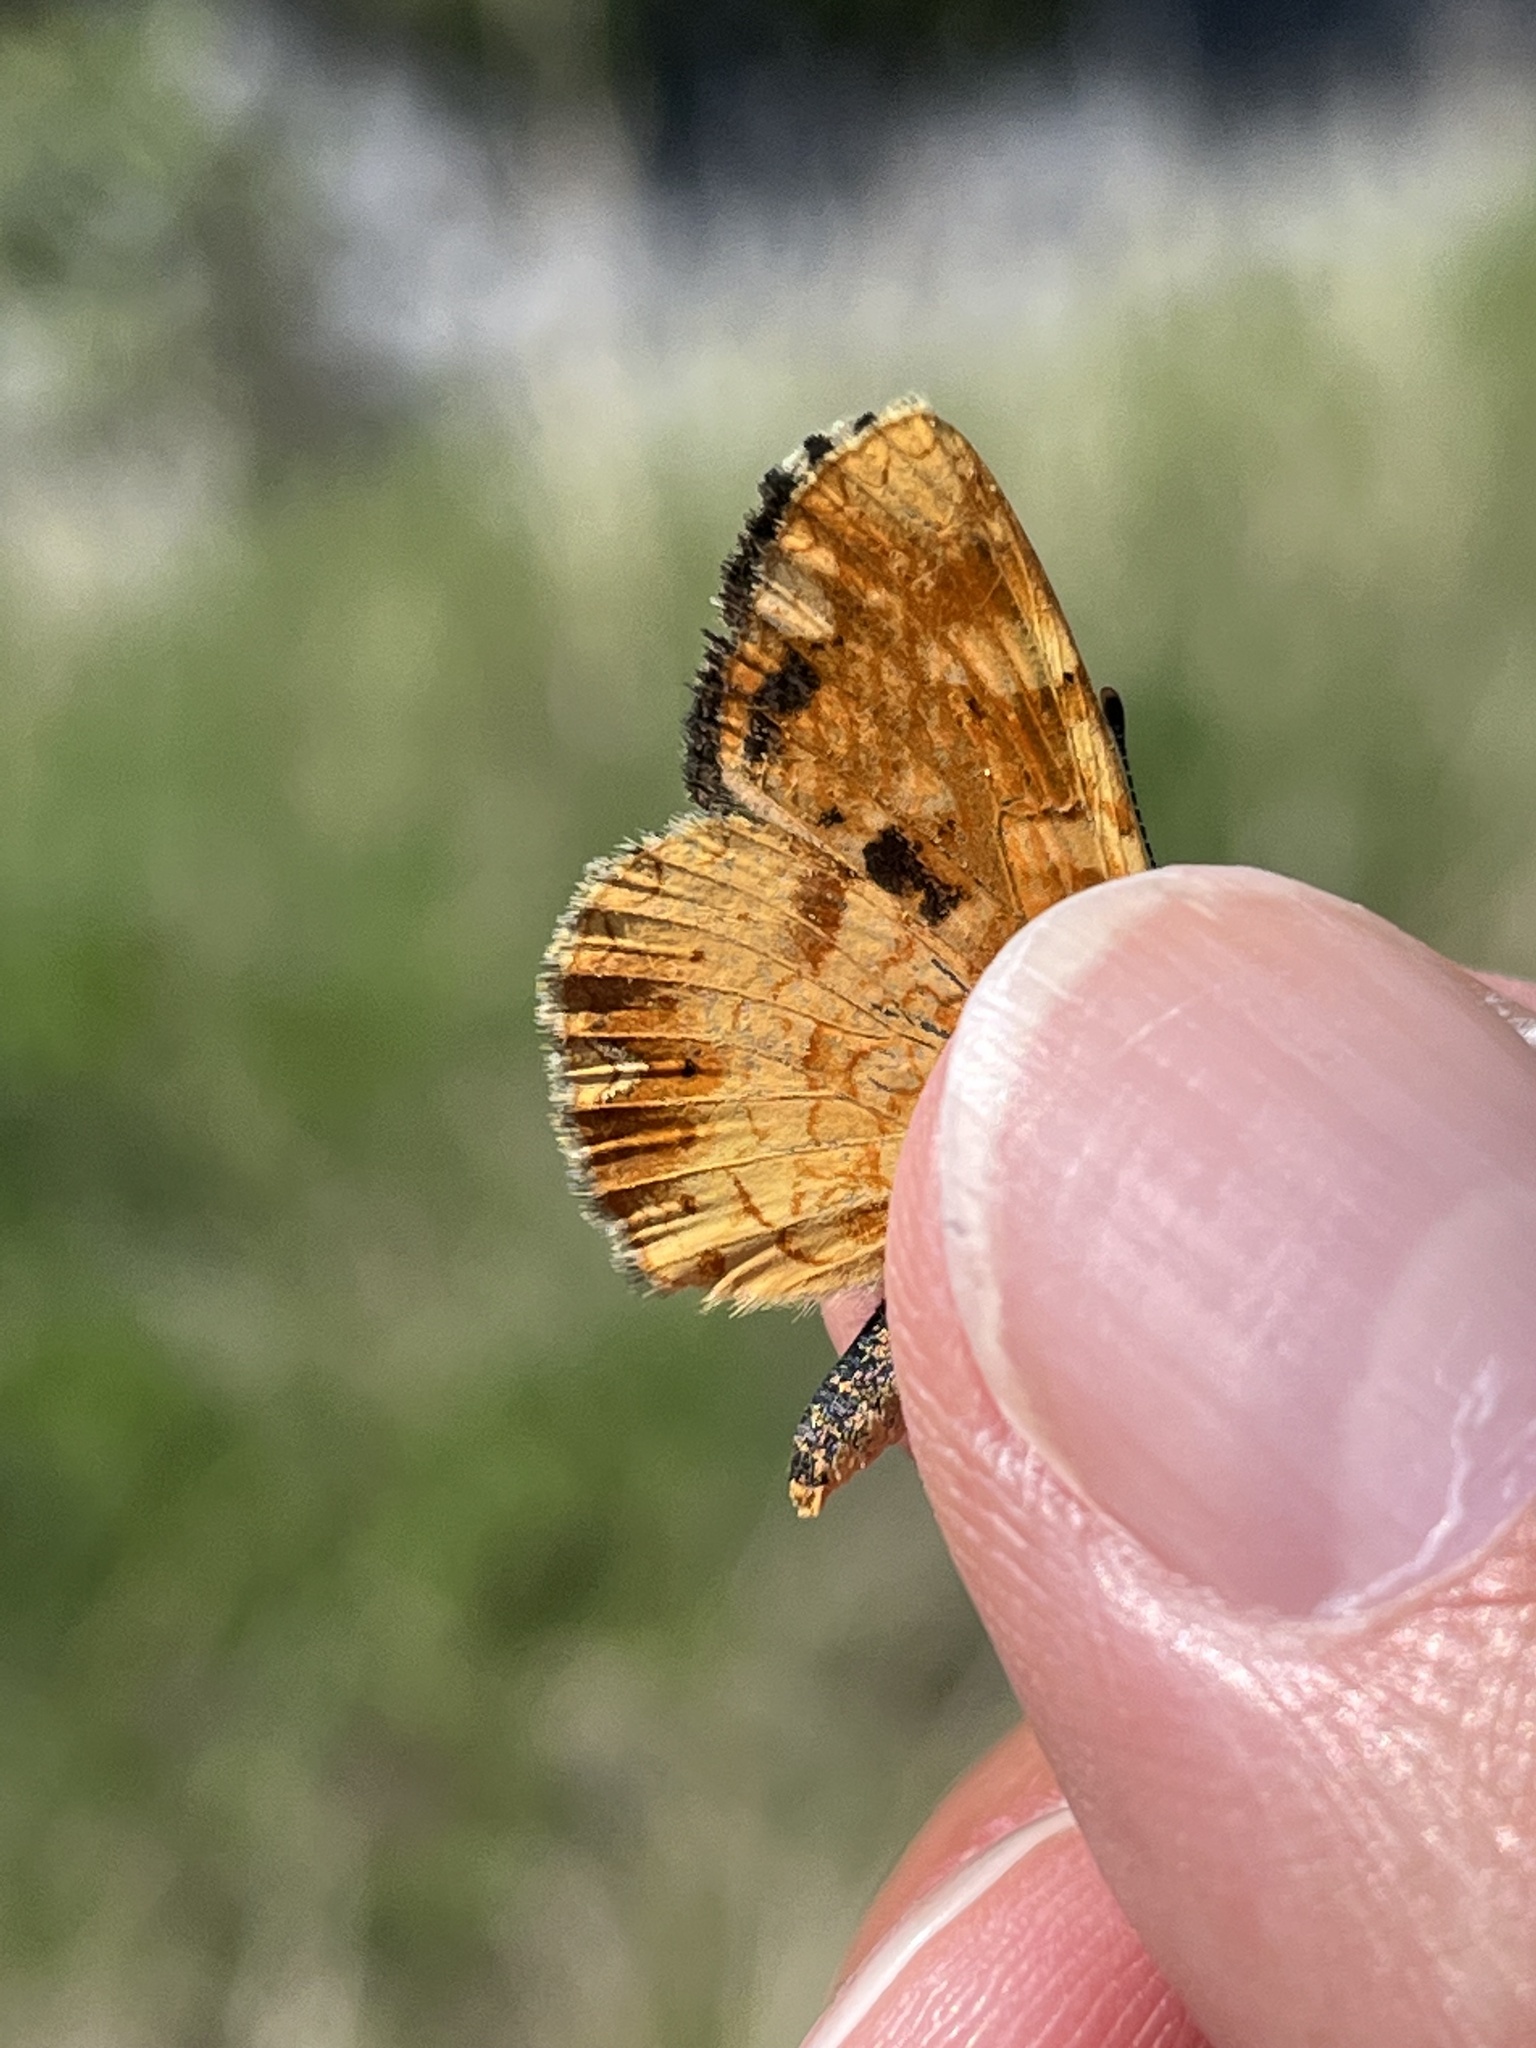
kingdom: Animalia
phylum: Arthropoda
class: Insecta
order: Lepidoptera
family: Nymphalidae
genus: Phyciodes
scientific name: Phyciodes tharos
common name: Pearl crescent
